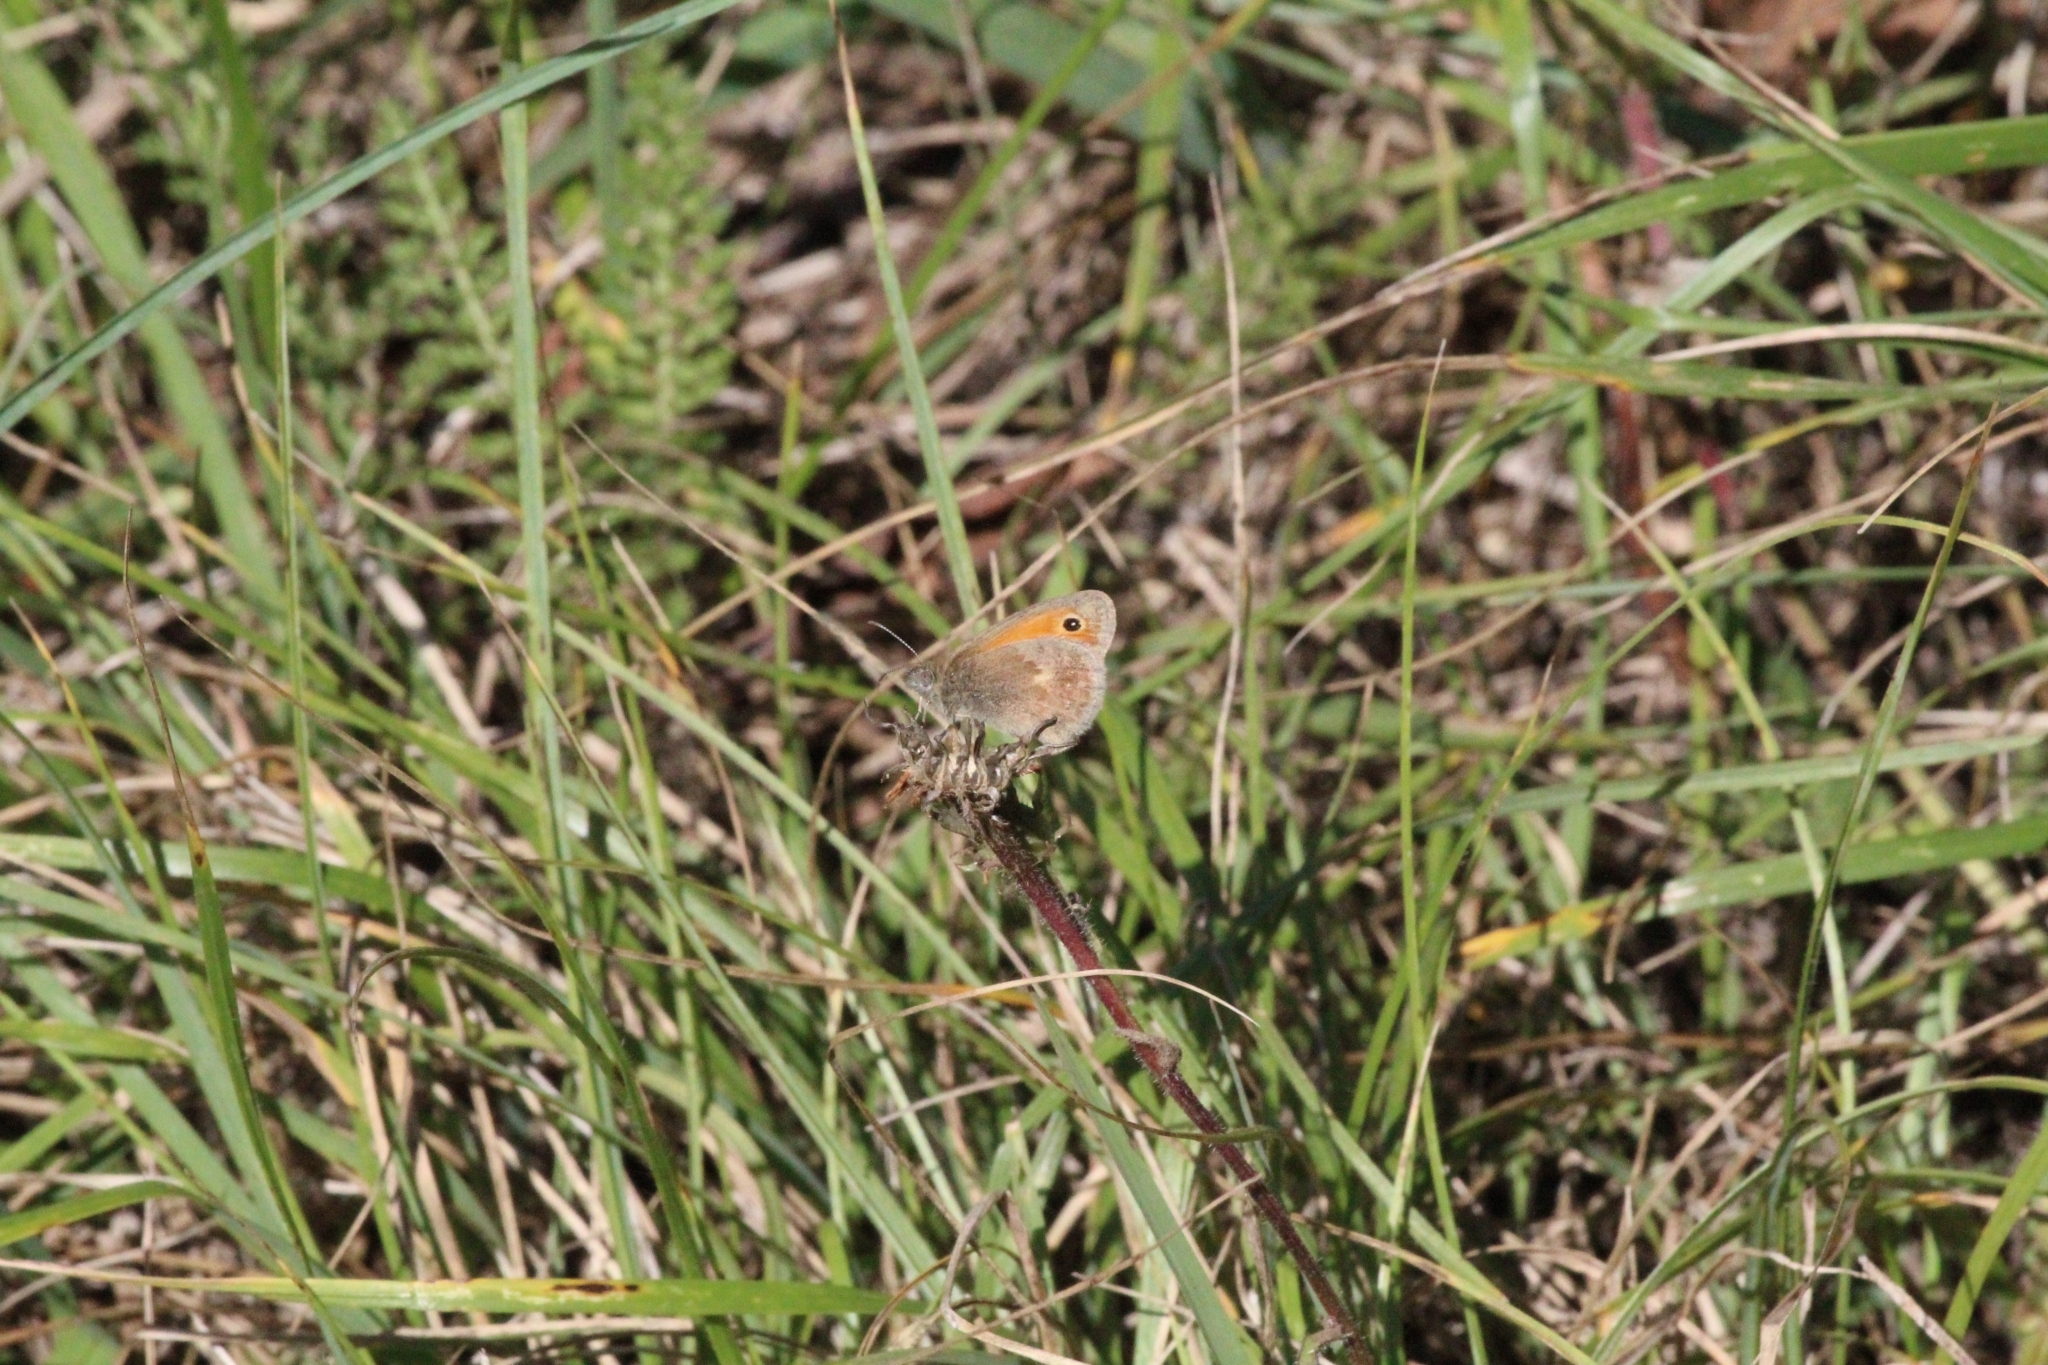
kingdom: Animalia
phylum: Arthropoda
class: Insecta
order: Lepidoptera
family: Nymphalidae
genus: Coenonympha
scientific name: Coenonympha pamphilus
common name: Small heath
